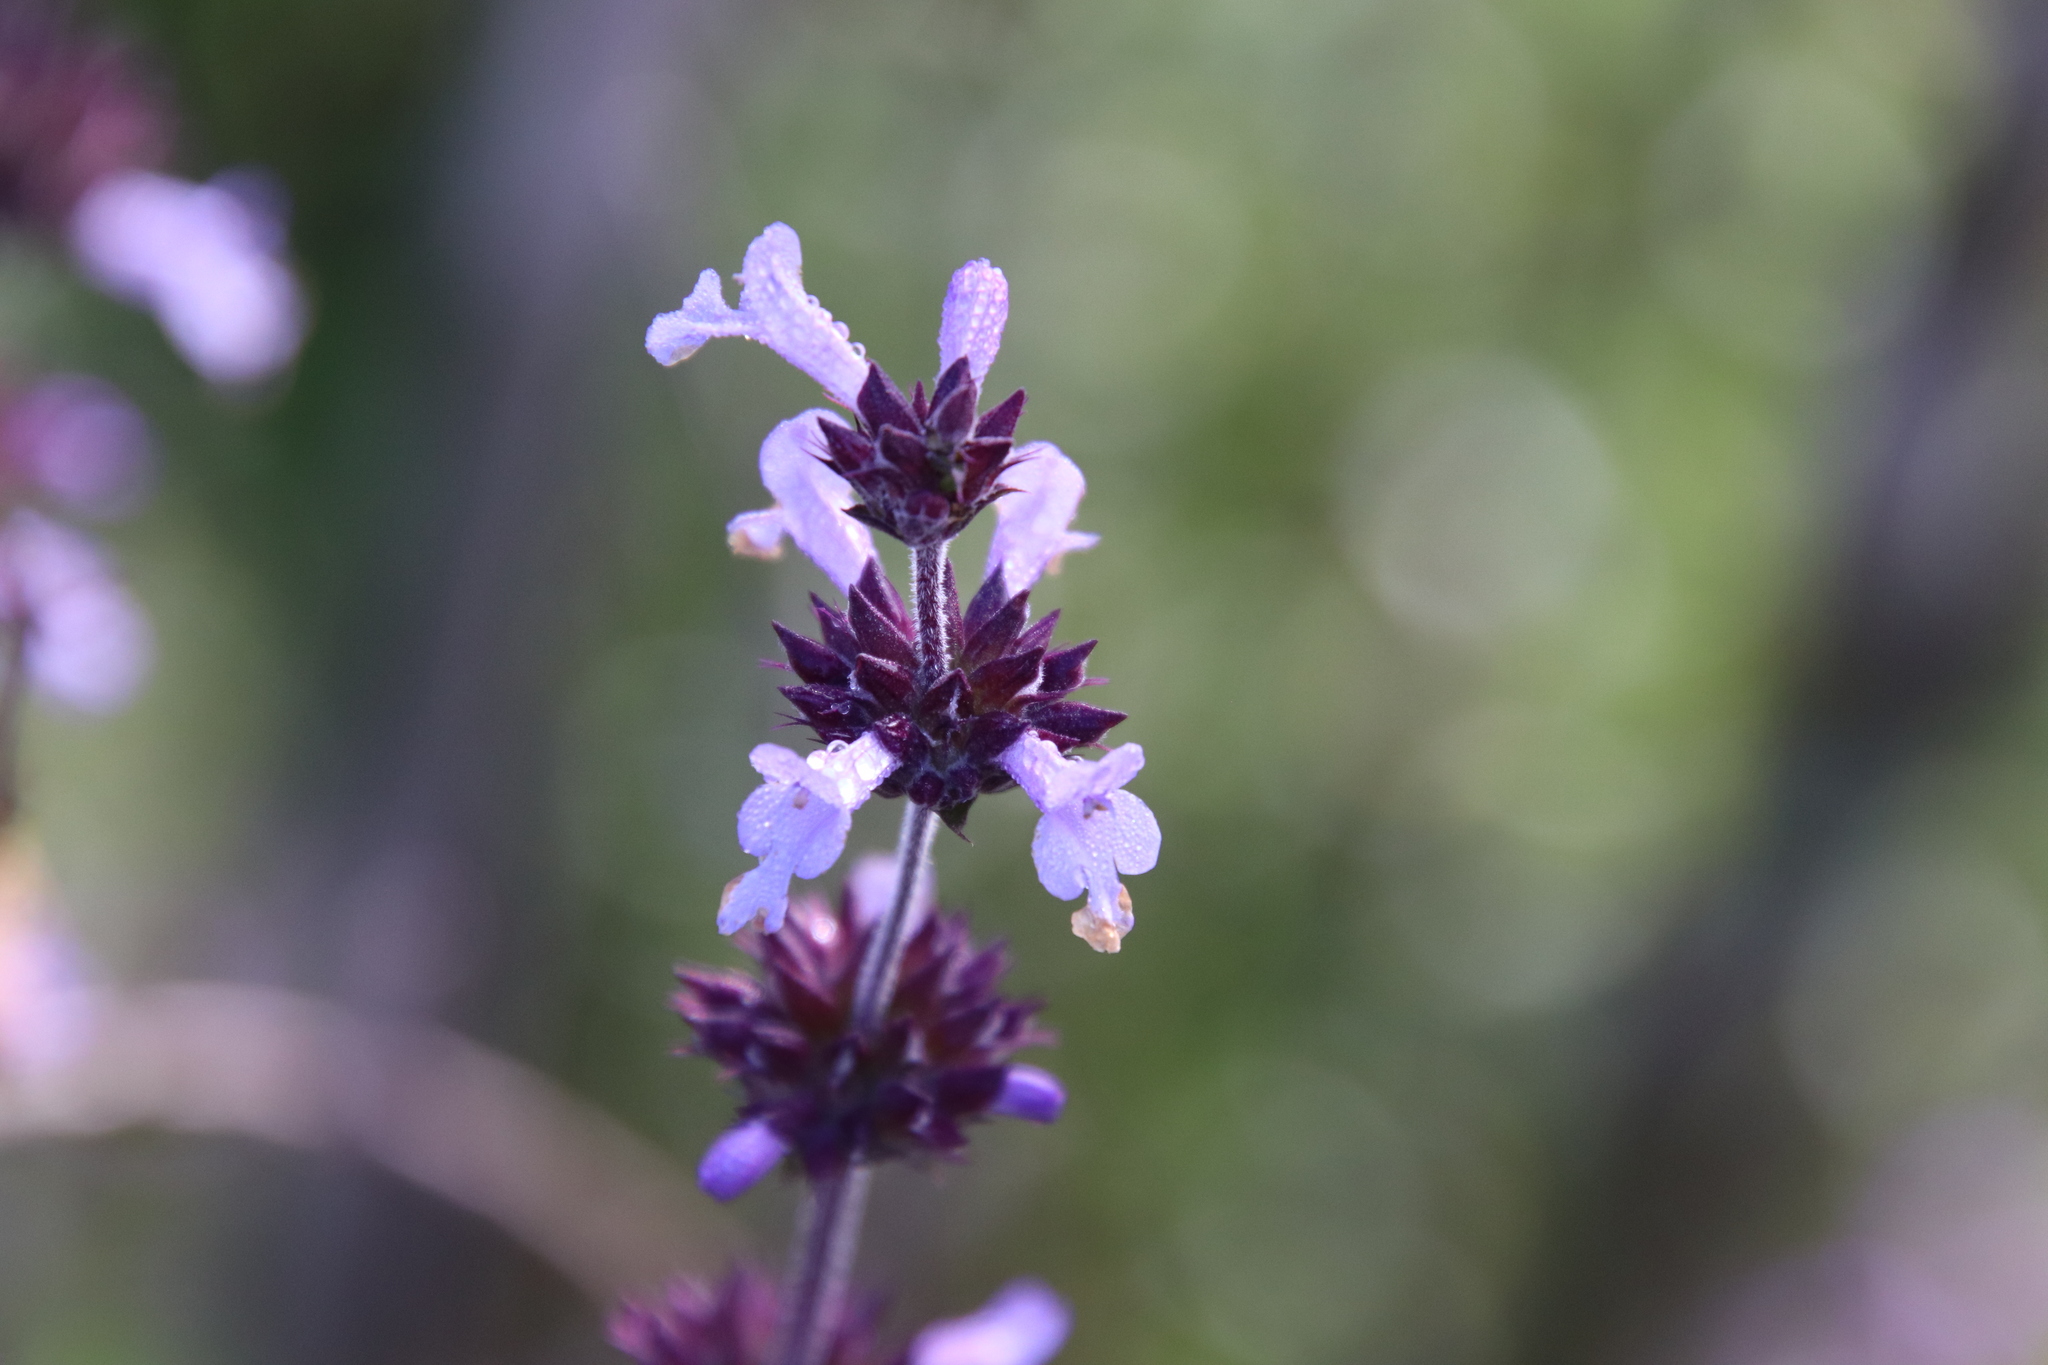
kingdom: Plantae
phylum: Tracheophyta
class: Magnoliopsida
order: Lamiales
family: Lamiaceae
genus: Salvia
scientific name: Salvia munzii
